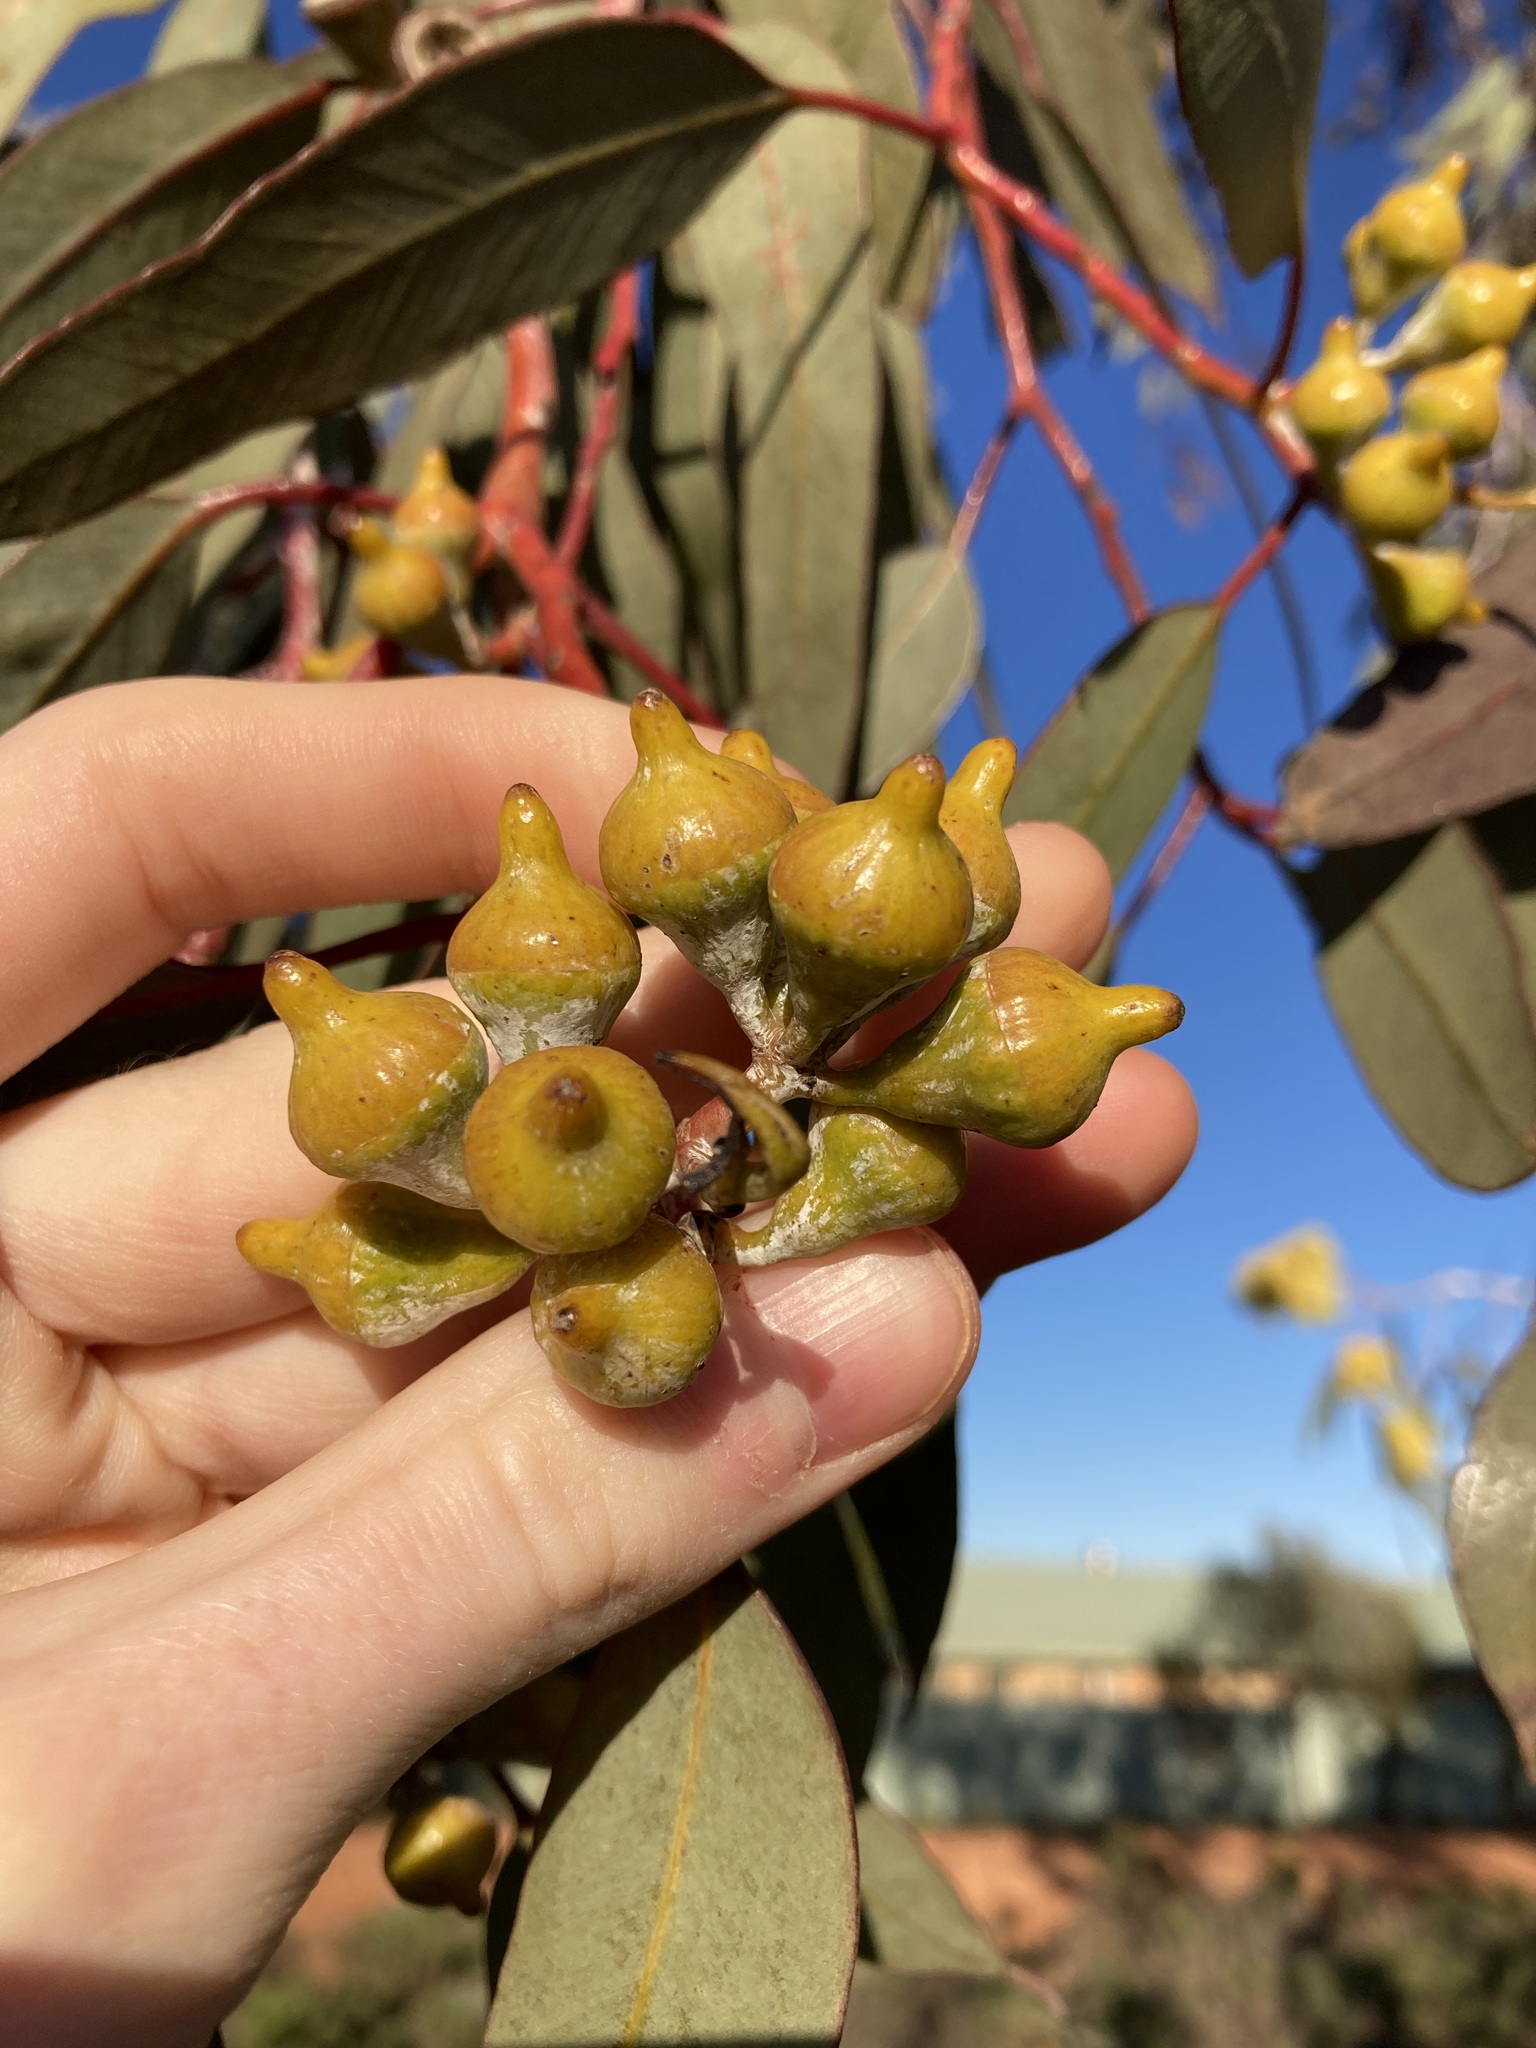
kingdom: Plantae
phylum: Tracheophyta
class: Magnoliopsida
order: Myrtales
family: Myrtaceae
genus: Eucalyptus
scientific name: Eucalyptus woodwardii
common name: Lemon-flowered mallee
